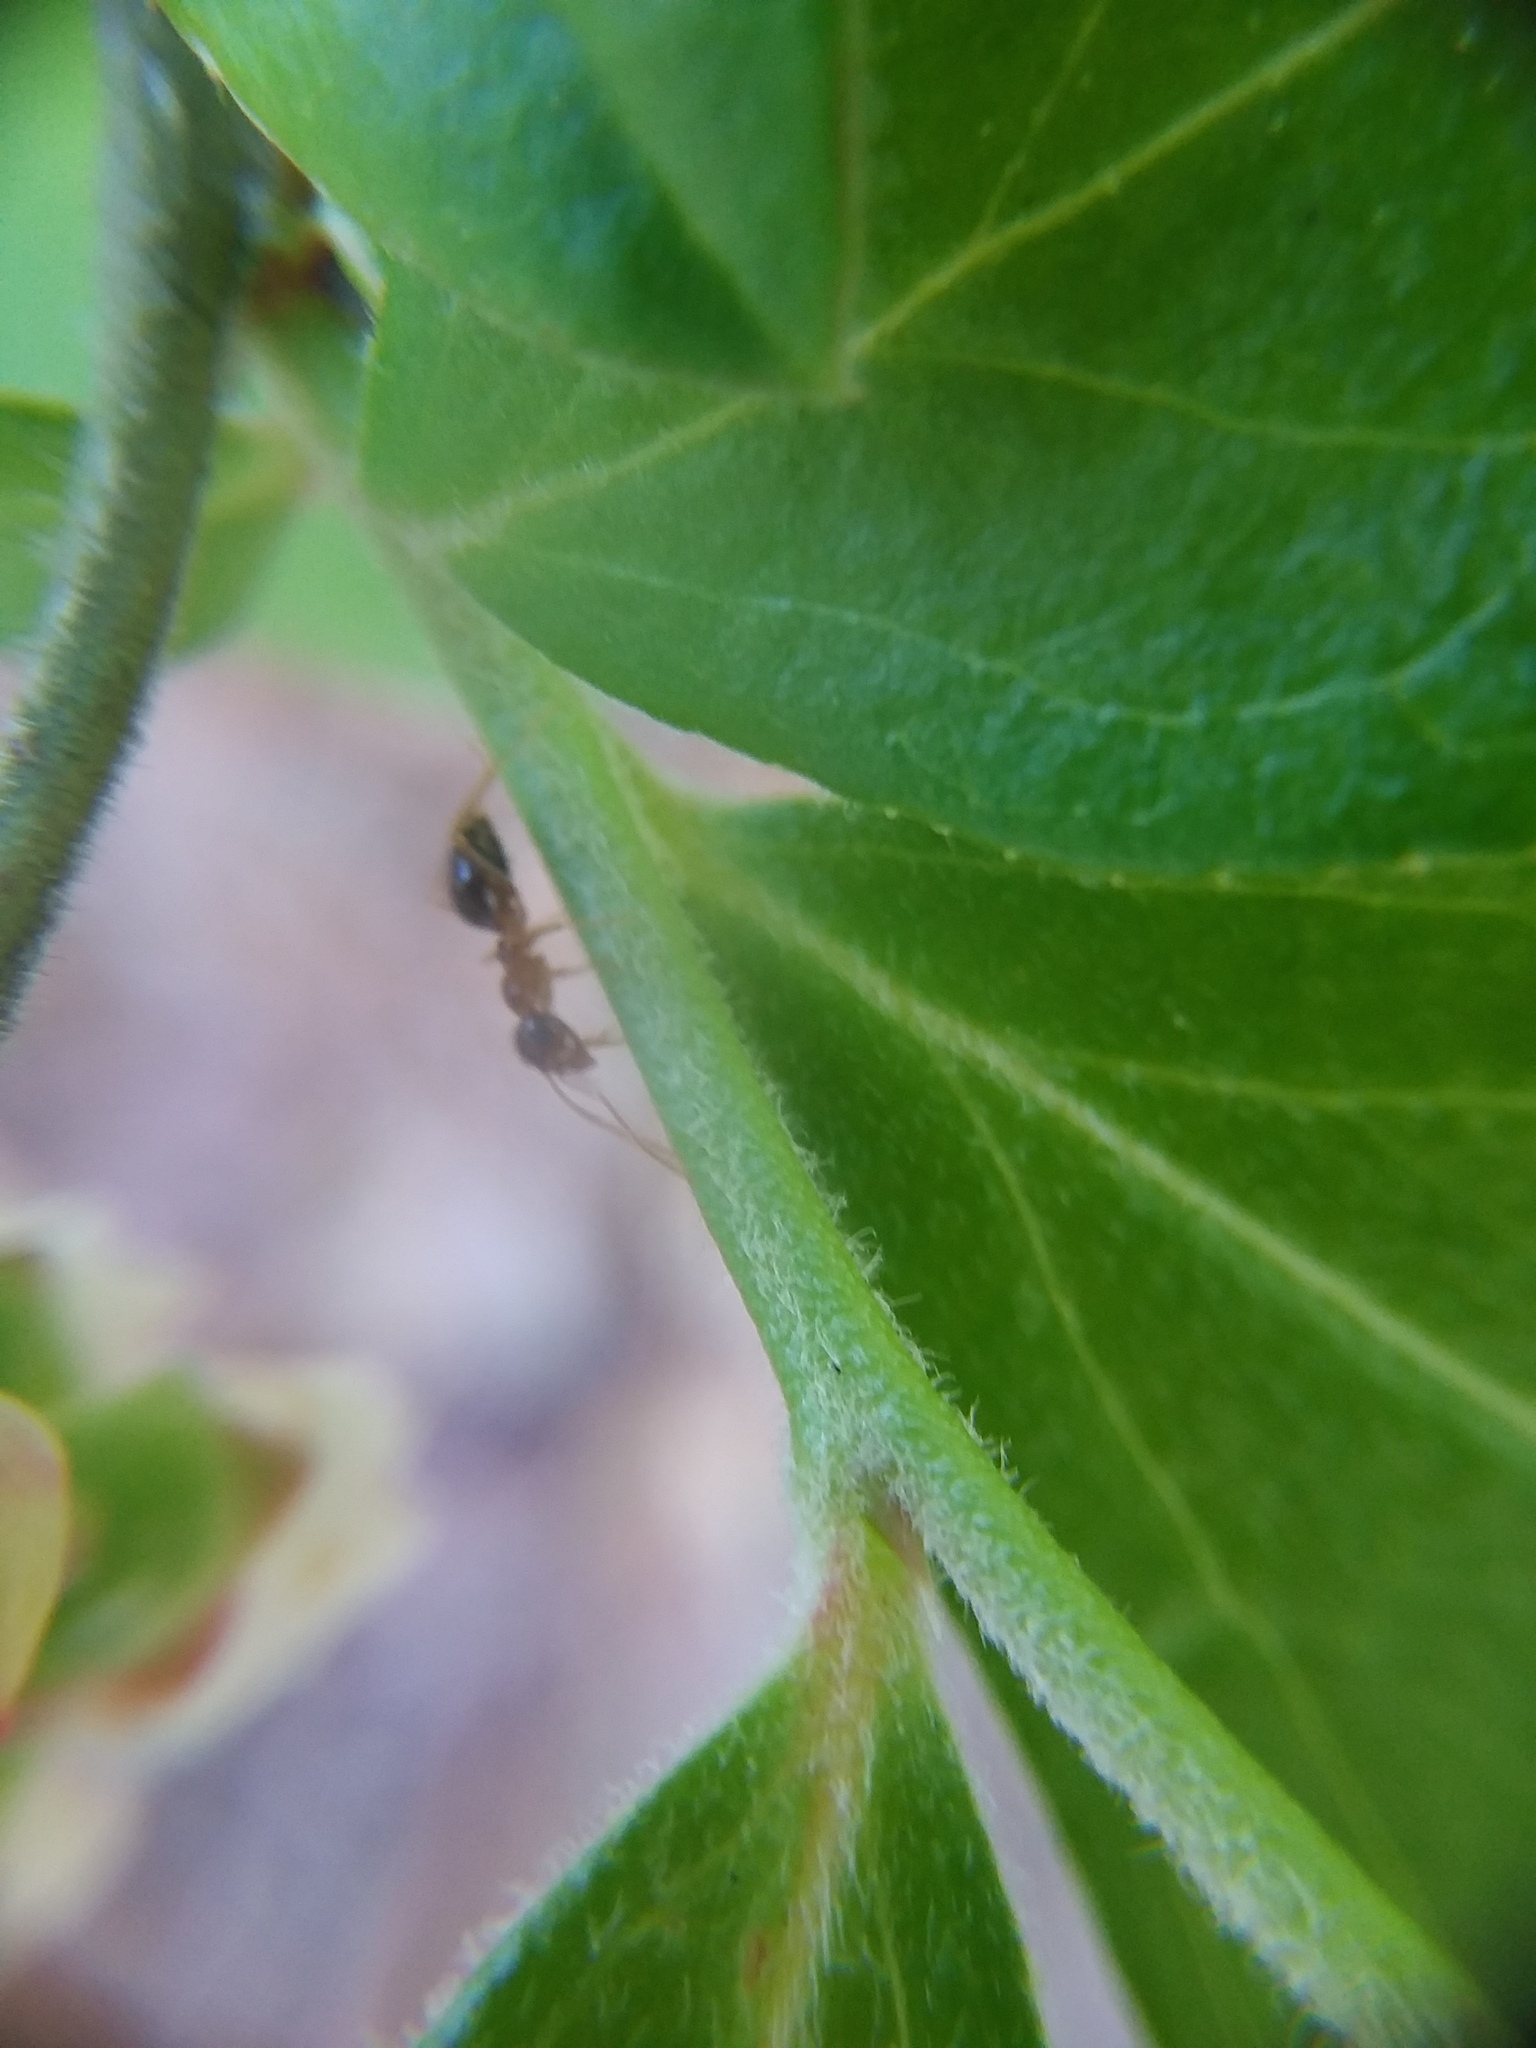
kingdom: Animalia
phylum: Arthropoda
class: Insecta
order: Hymenoptera
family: Formicidae
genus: Prenolepis
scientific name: Prenolepis imparis
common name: Small honey ant
